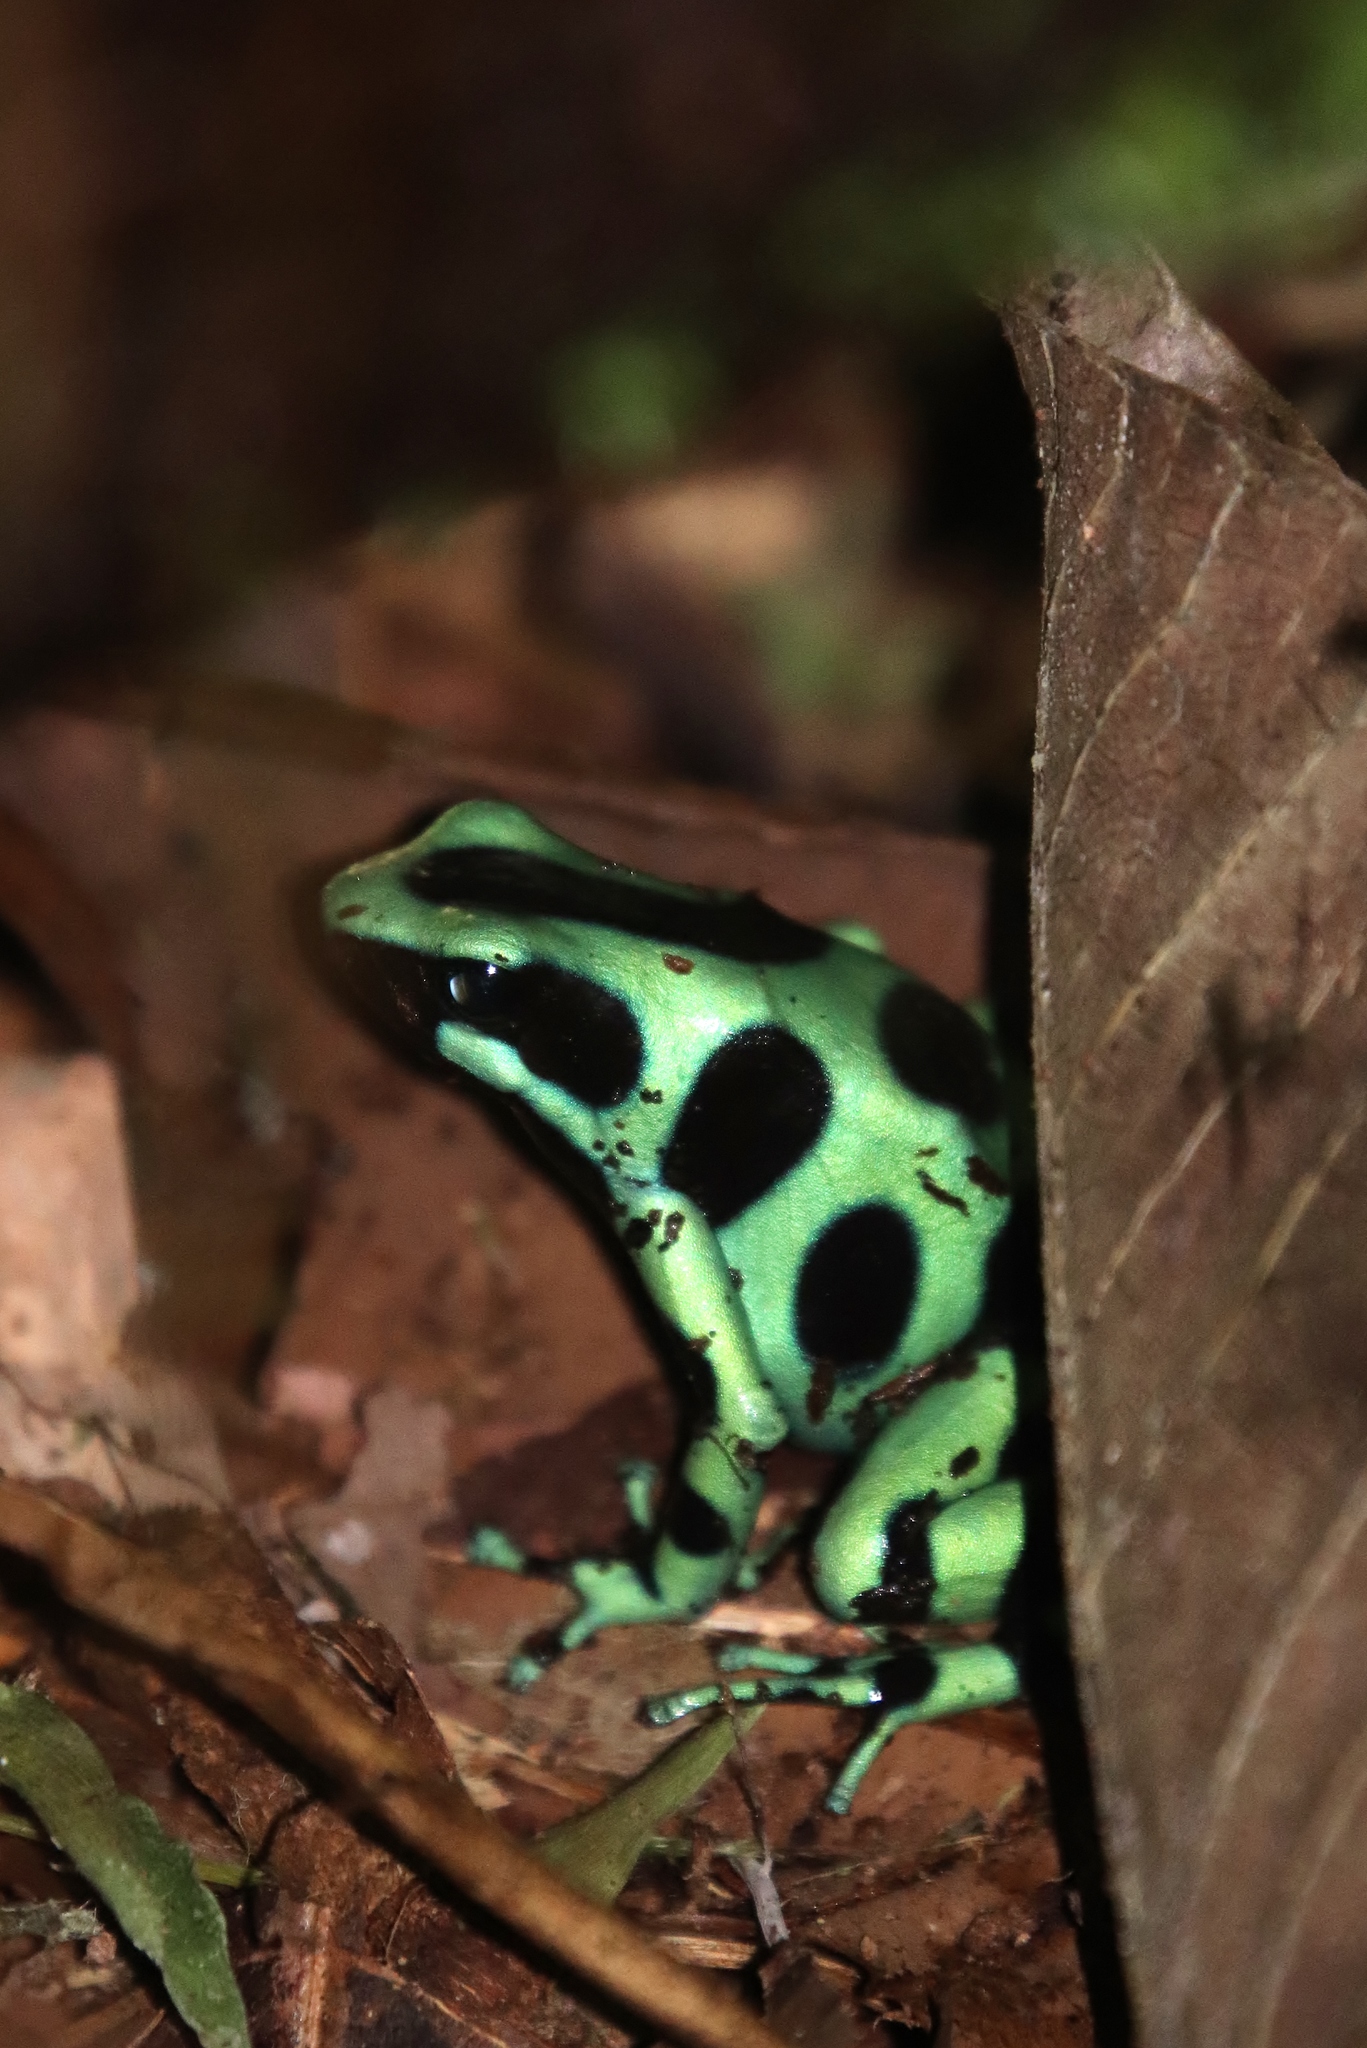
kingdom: Animalia
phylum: Chordata
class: Amphibia
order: Anura
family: Dendrobatidae
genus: Dendrobates
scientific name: Dendrobates auratus
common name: Green and black poison dart frog
